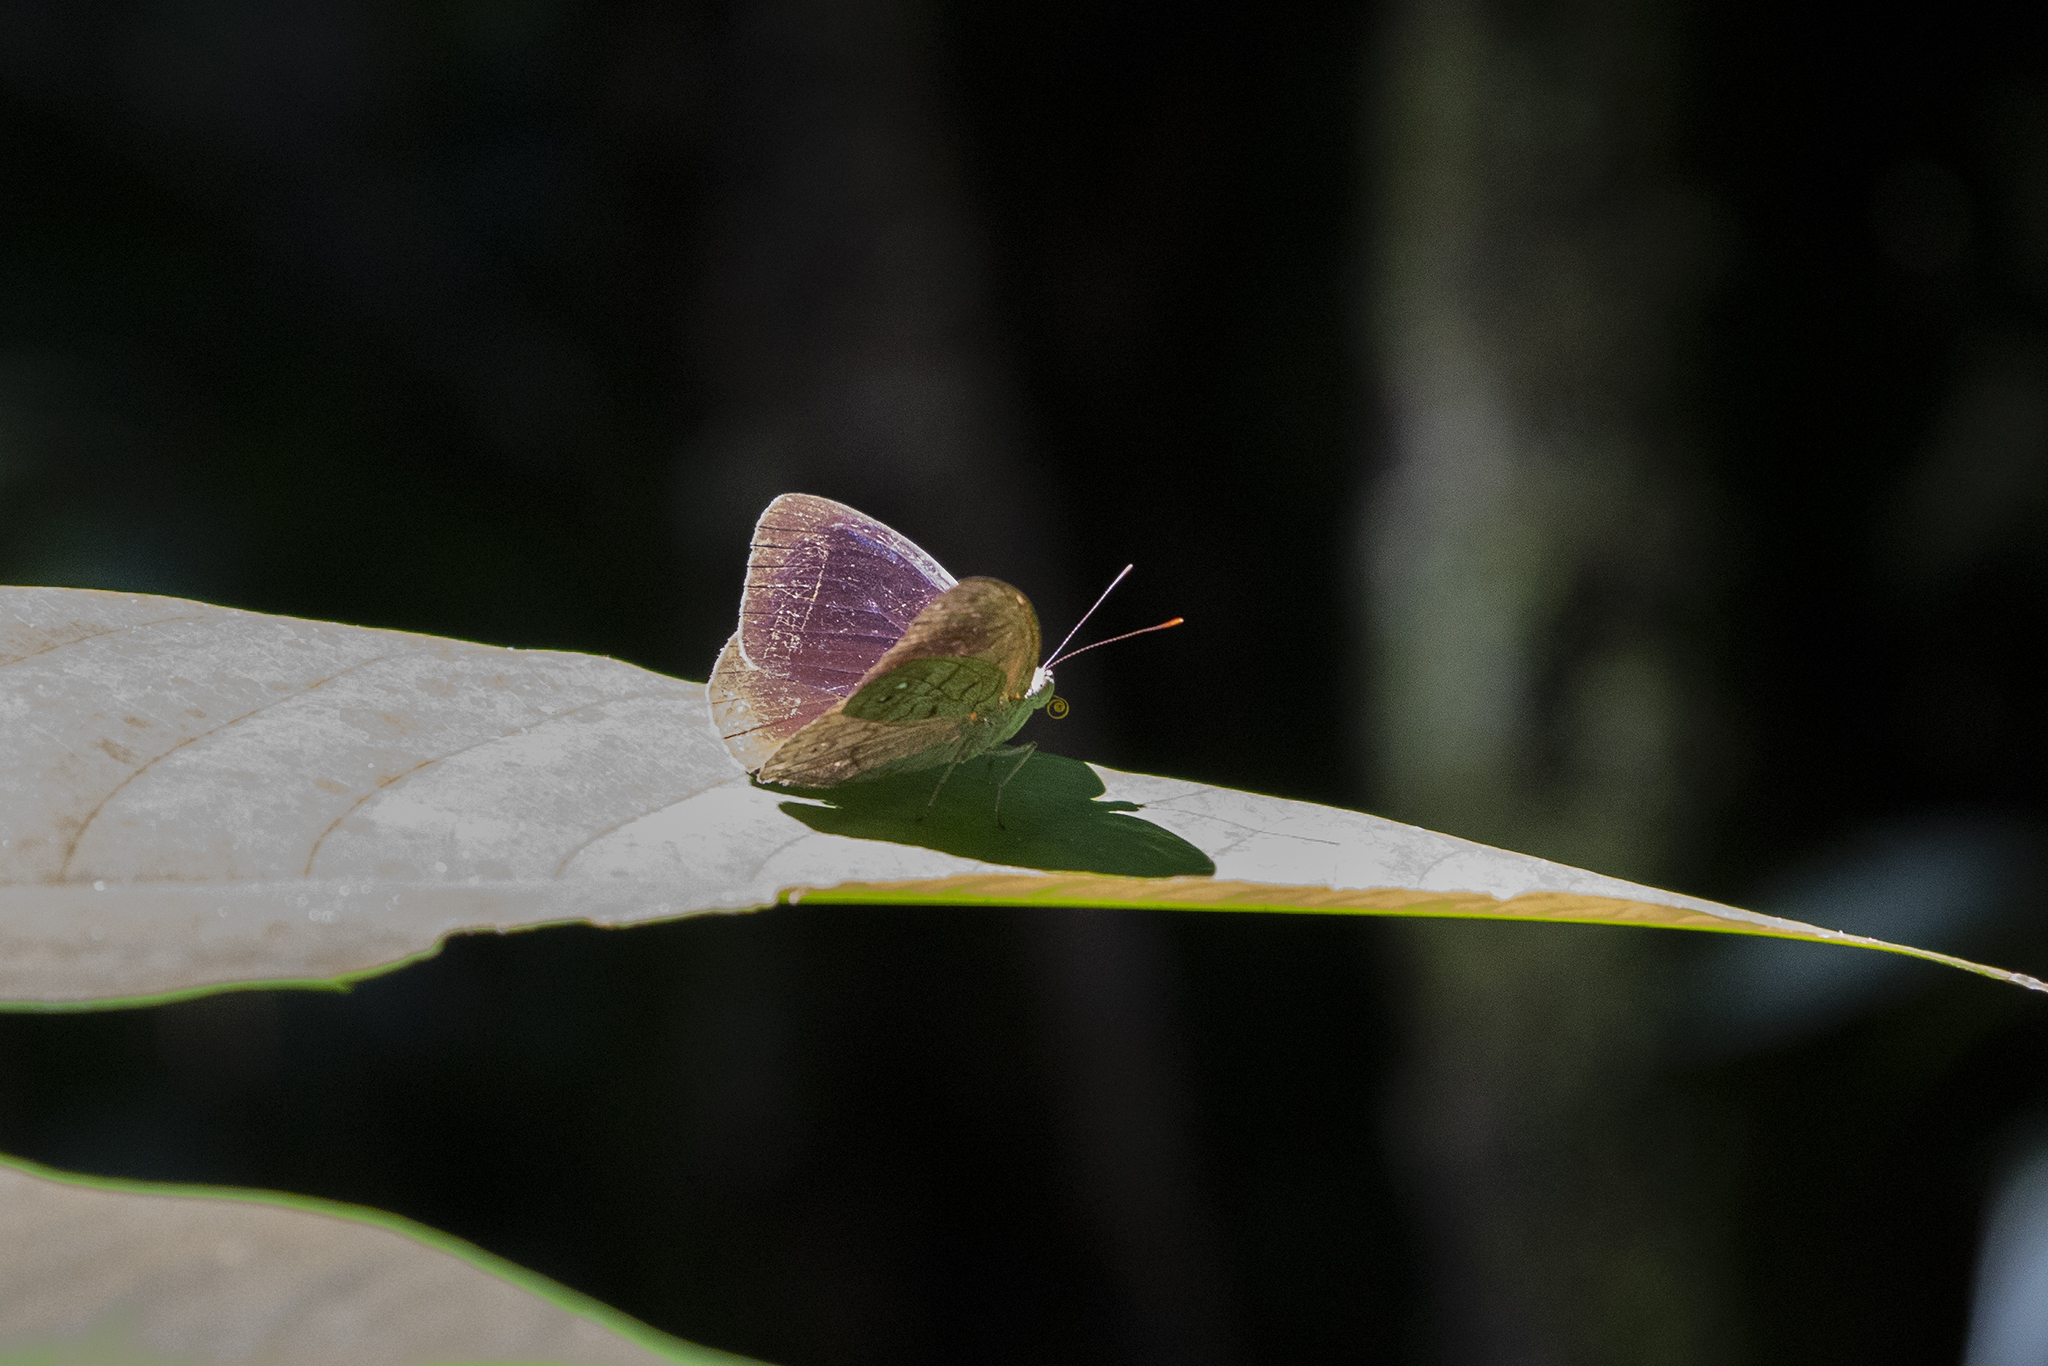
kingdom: Animalia
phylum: Arthropoda
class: Insecta
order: Lepidoptera
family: Nymphalidae
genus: Eunica
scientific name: Eunica veronica
